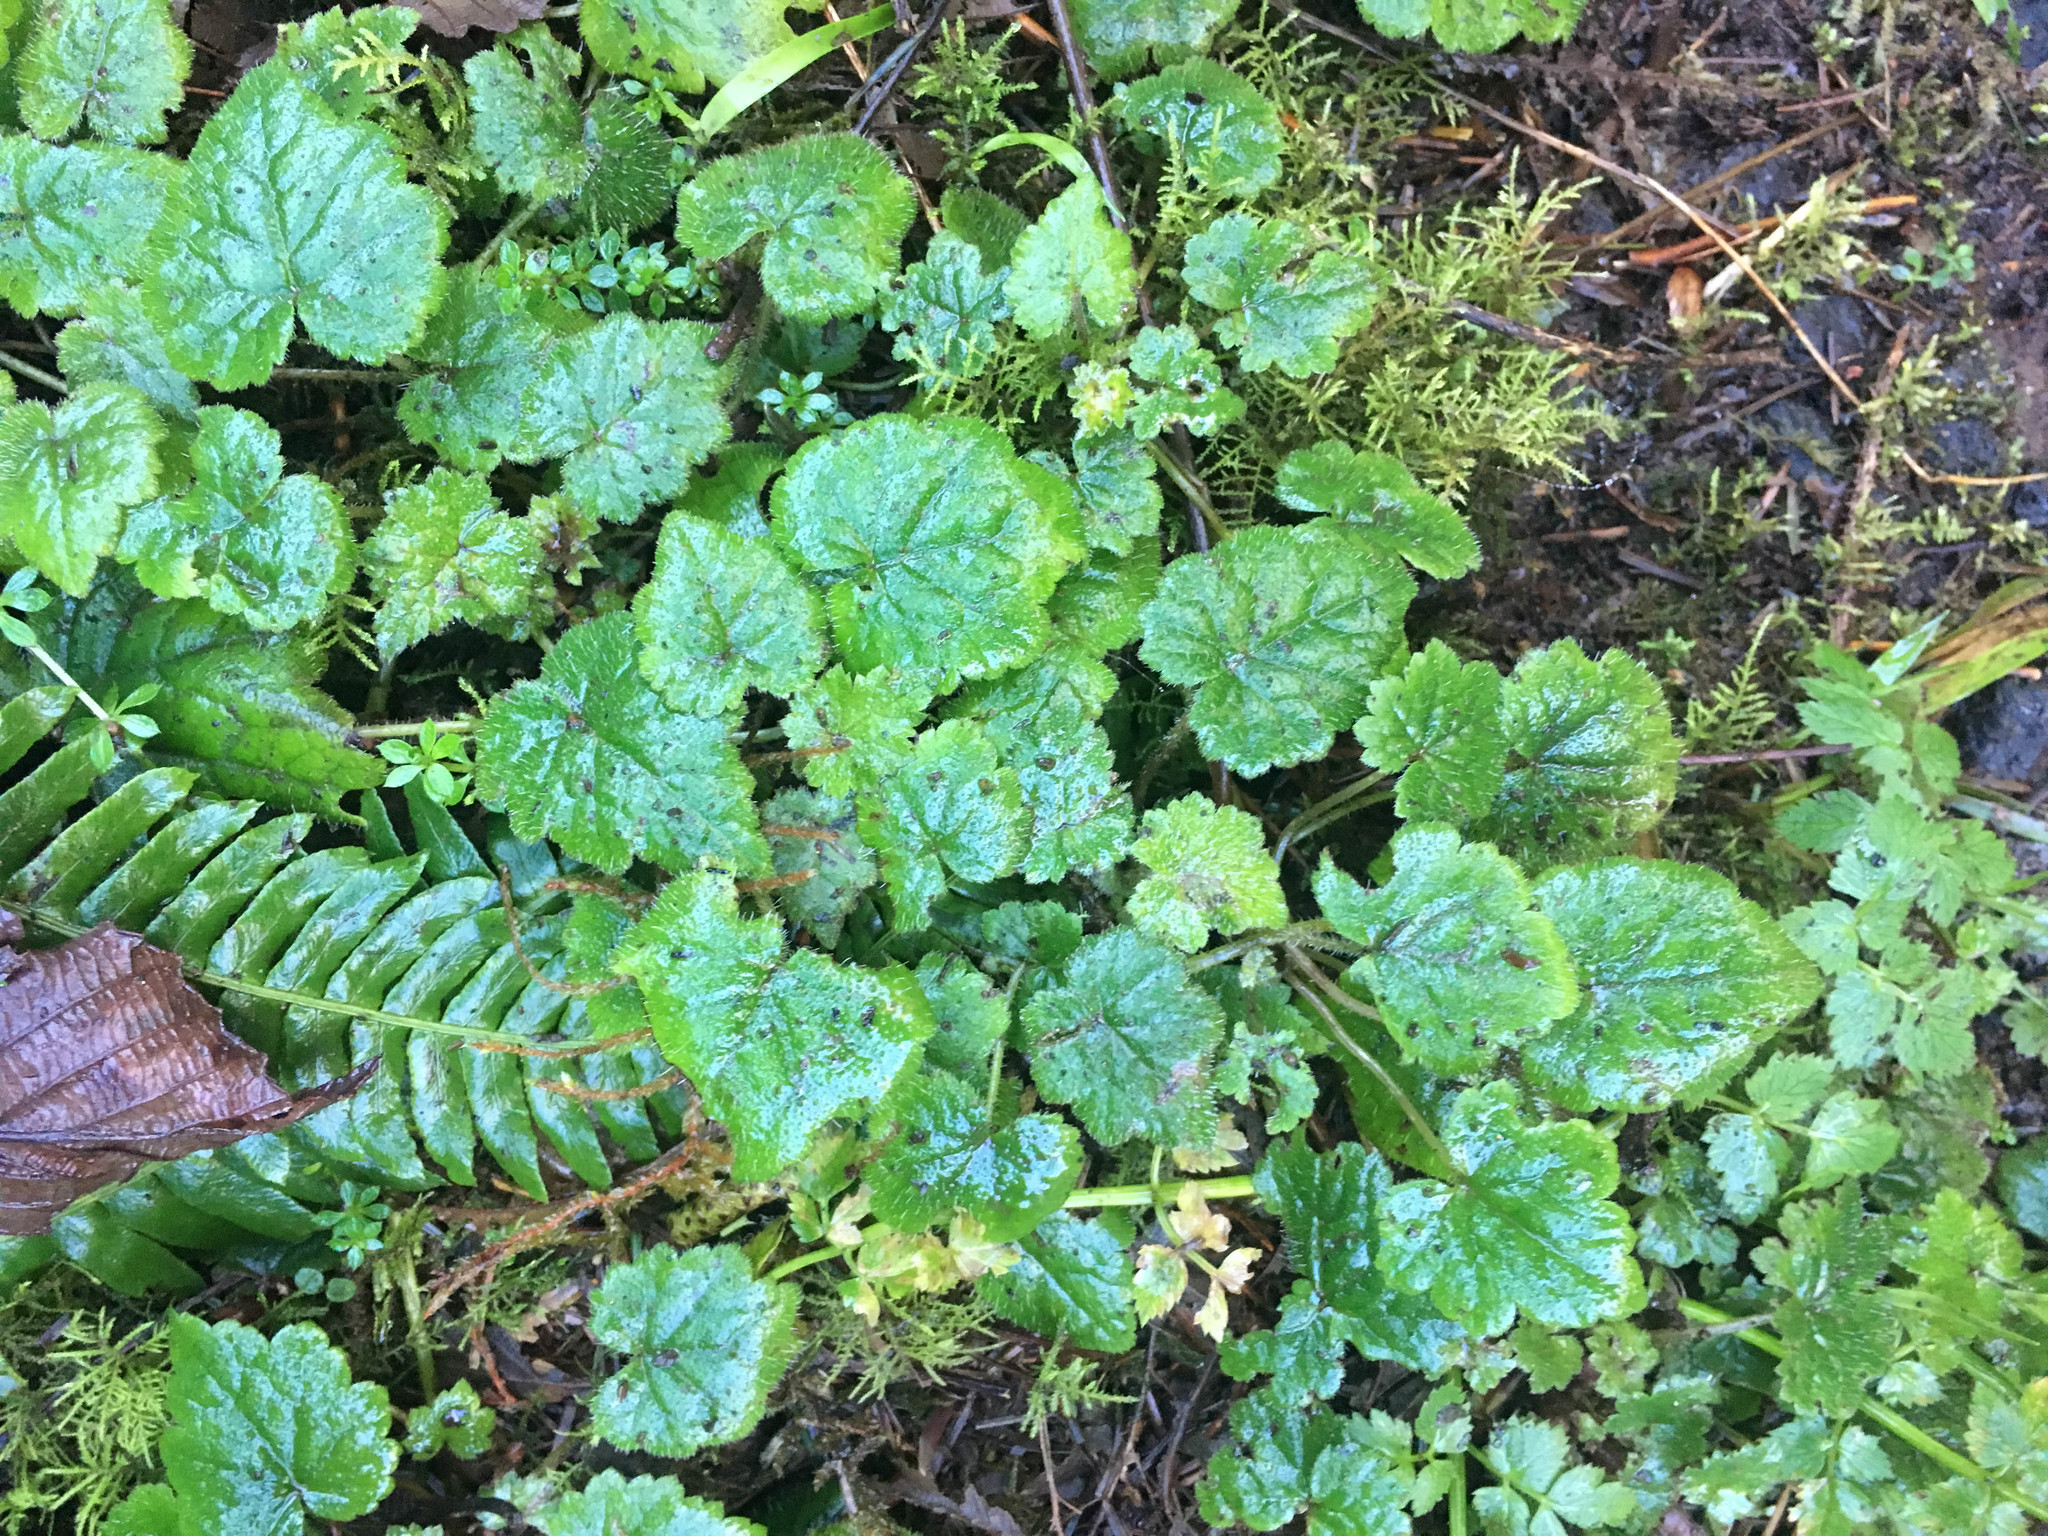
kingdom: Plantae
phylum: Tracheophyta
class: Magnoliopsida
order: Saxifragales
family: Saxifragaceae
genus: Tolmiea
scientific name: Tolmiea menziesii
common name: Pick-a-back-plant
